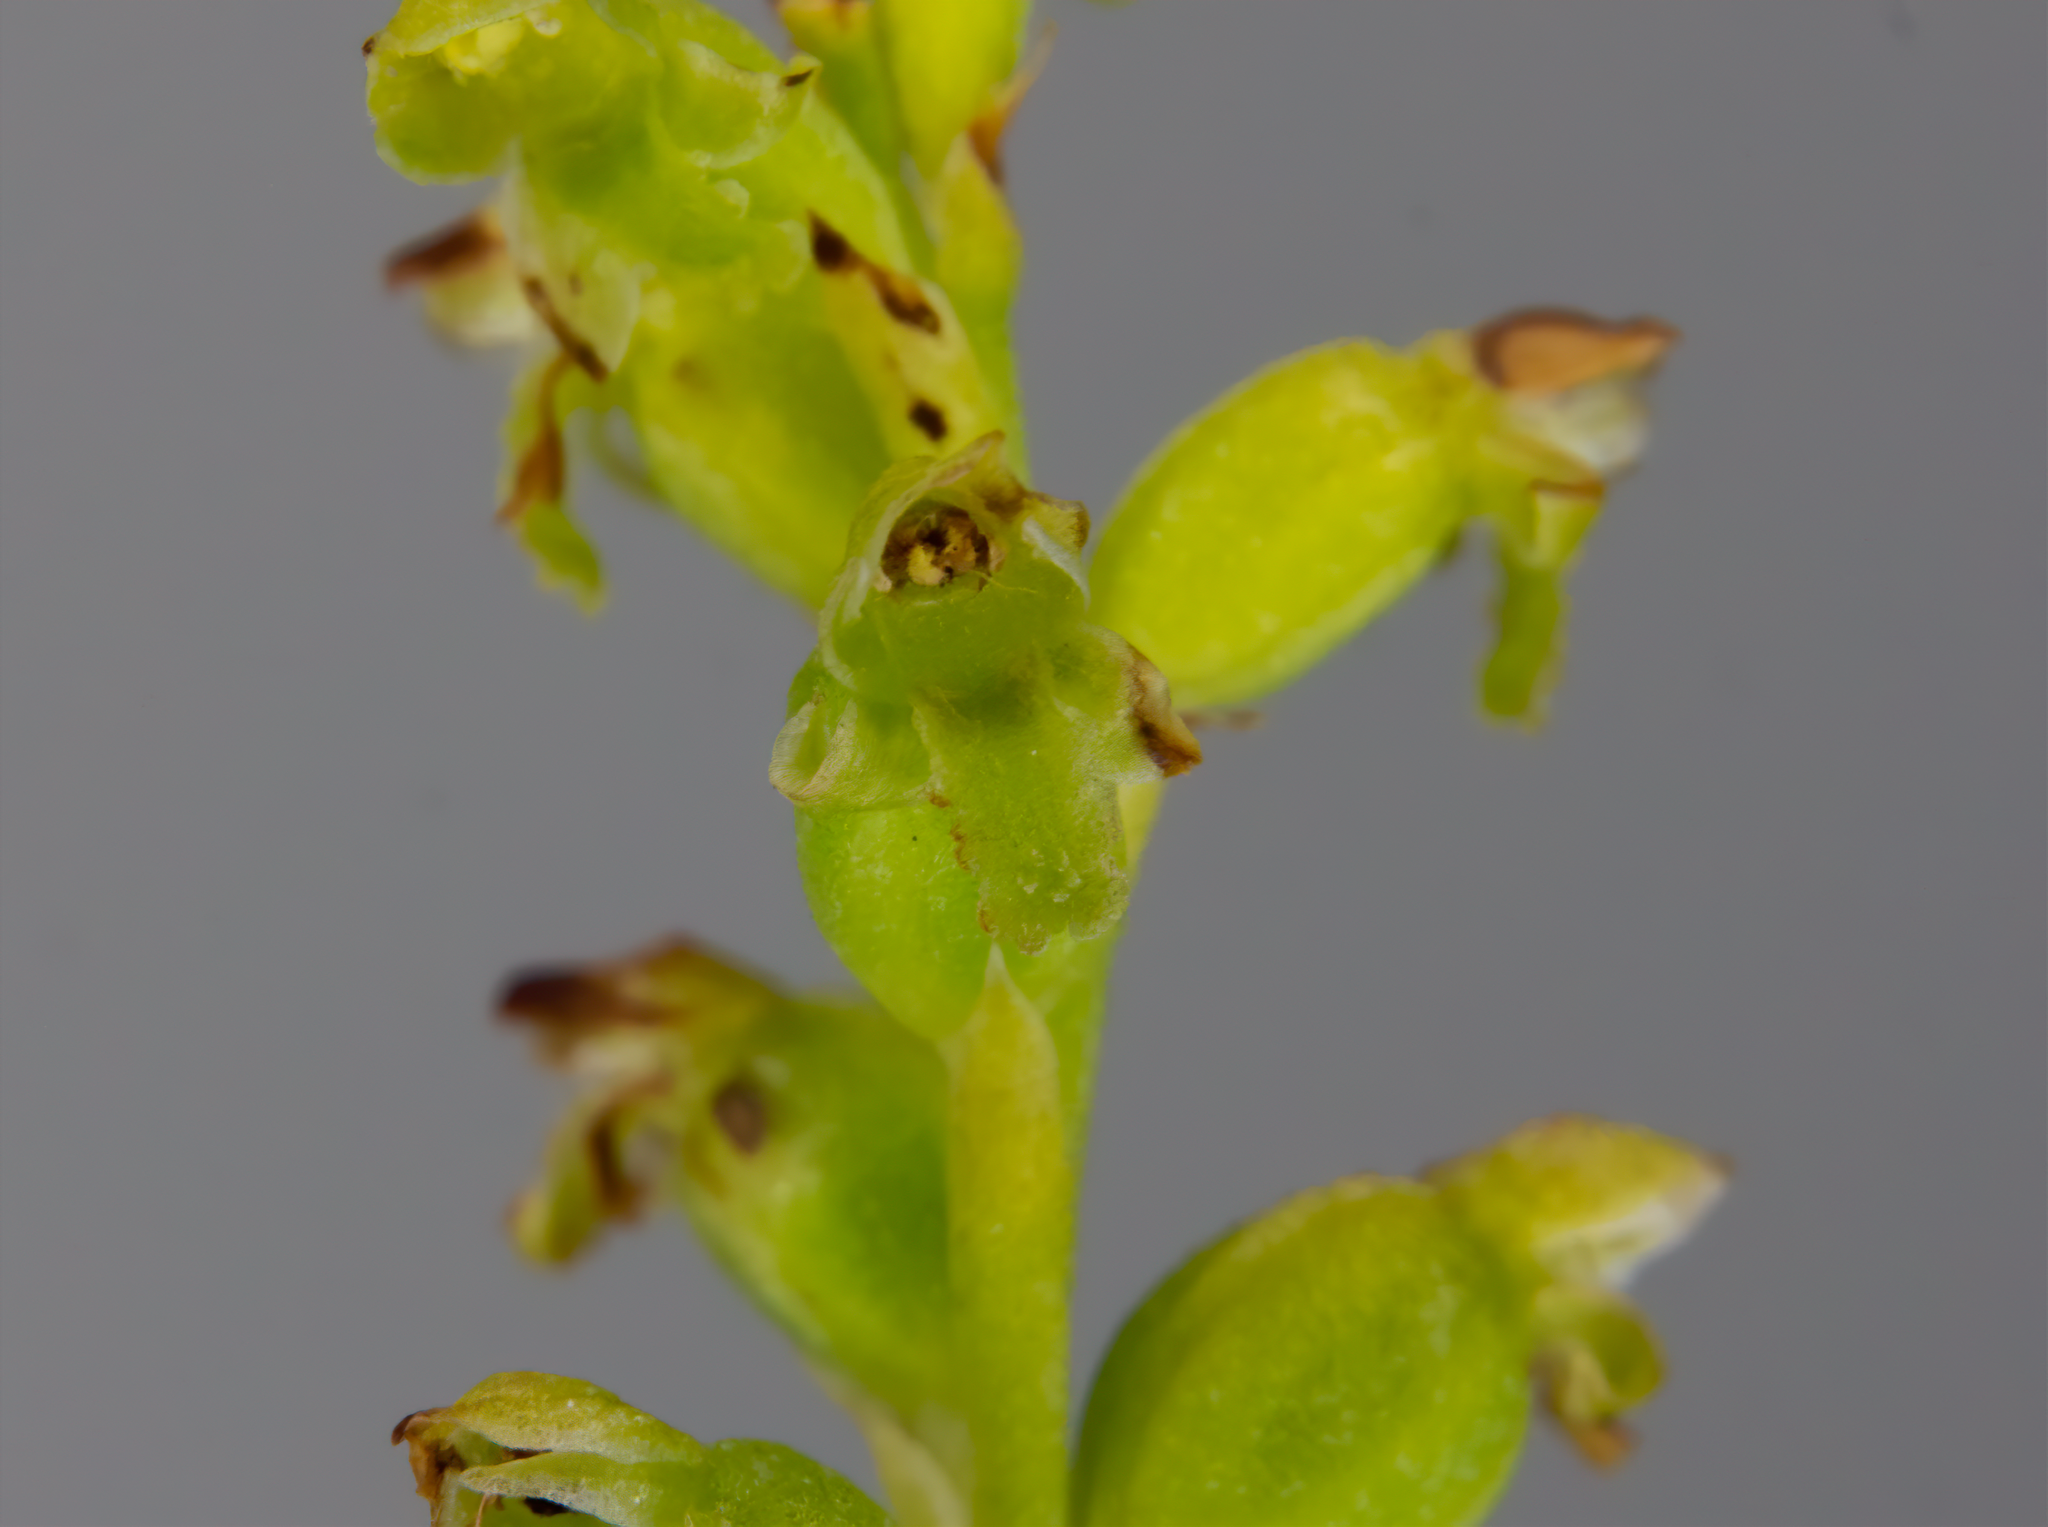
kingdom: Plantae
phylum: Tracheophyta
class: Liliopsida
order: Asparagales
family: Orchidaceae
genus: Microtis
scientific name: Microtis unifolia
